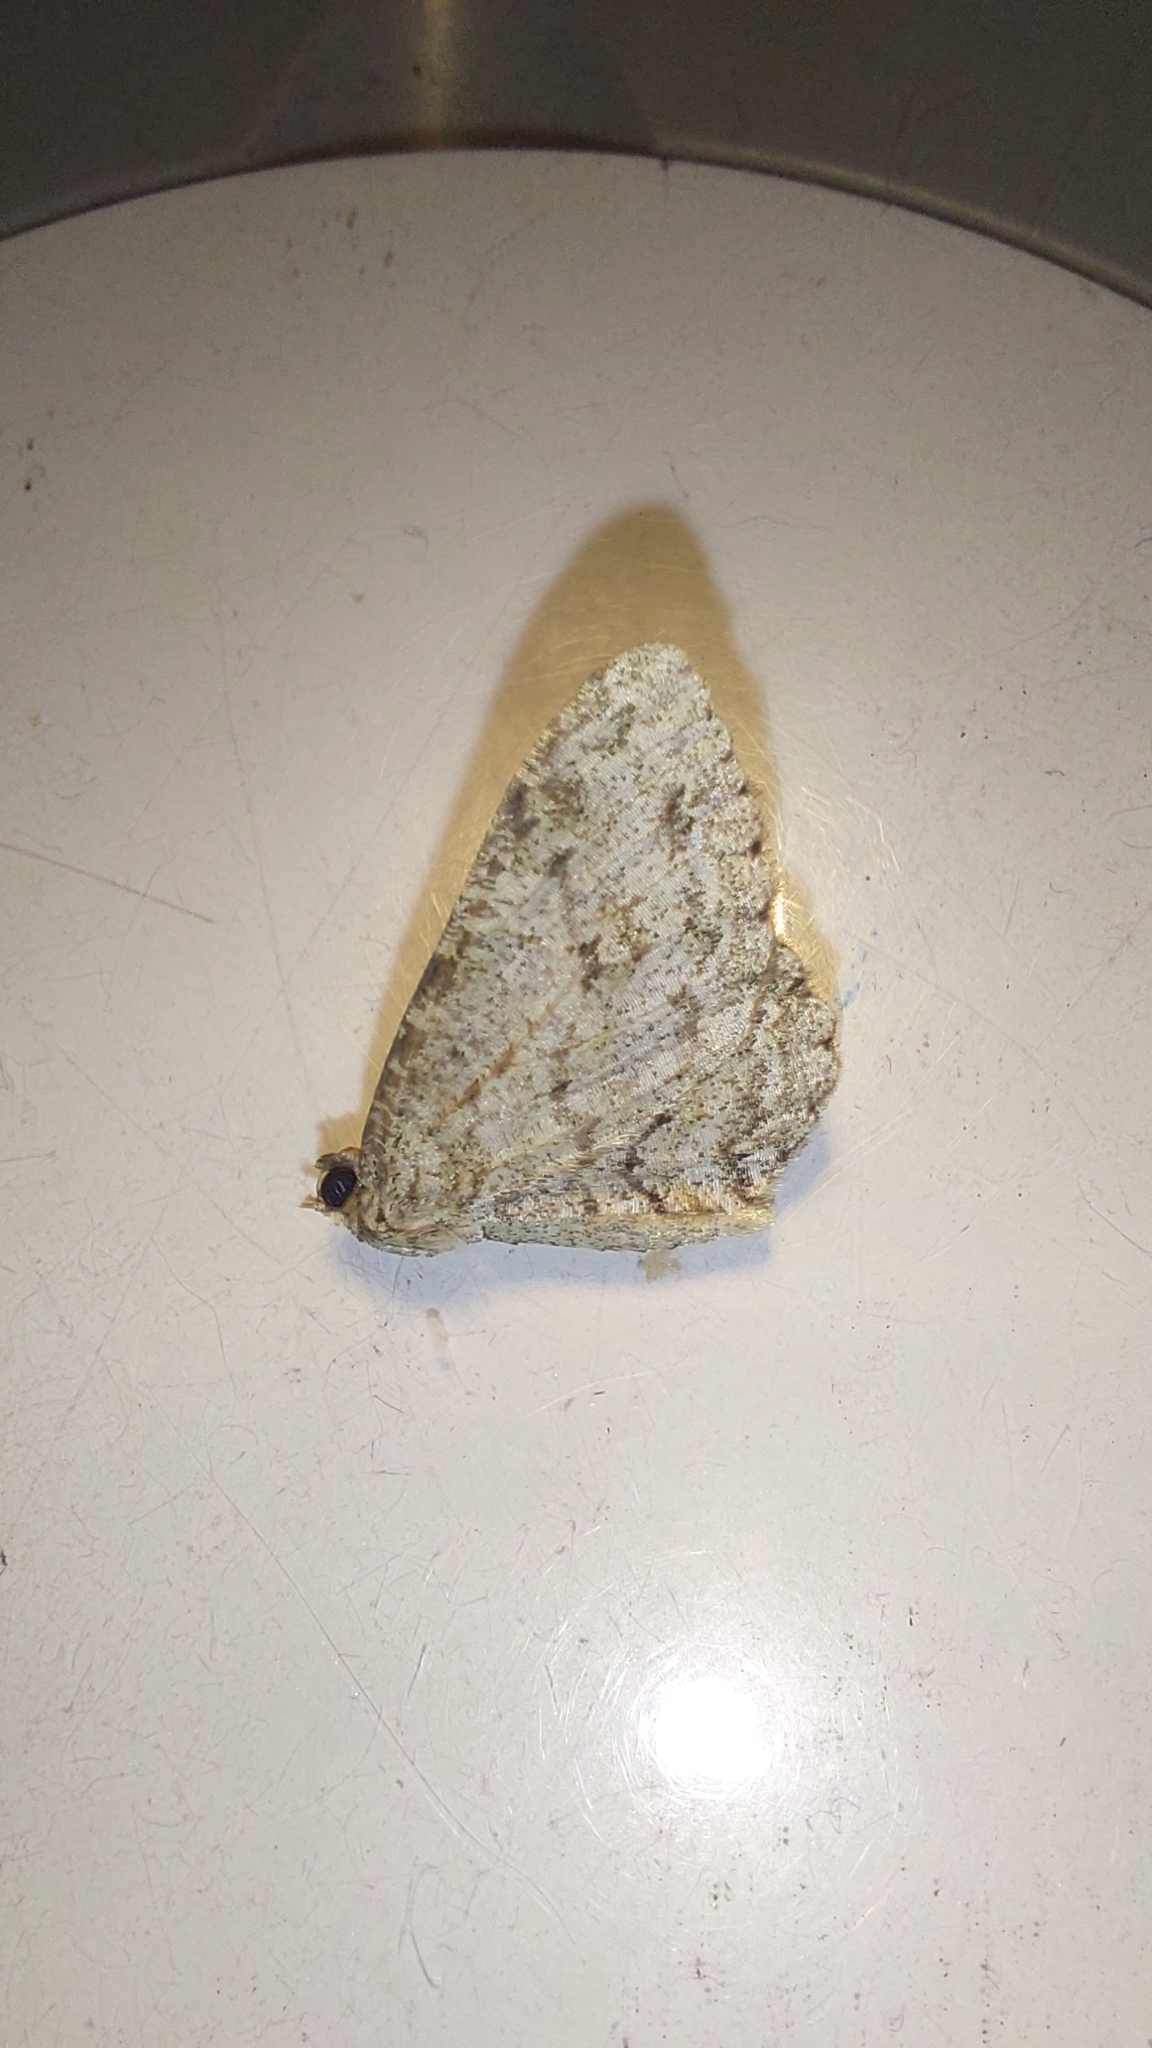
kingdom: Animalia
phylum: Arthropoda
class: Insecta
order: Lepidoptera
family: Geometridae
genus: Ectropis
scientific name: Ectropis crepuscularia
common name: Engrailed
